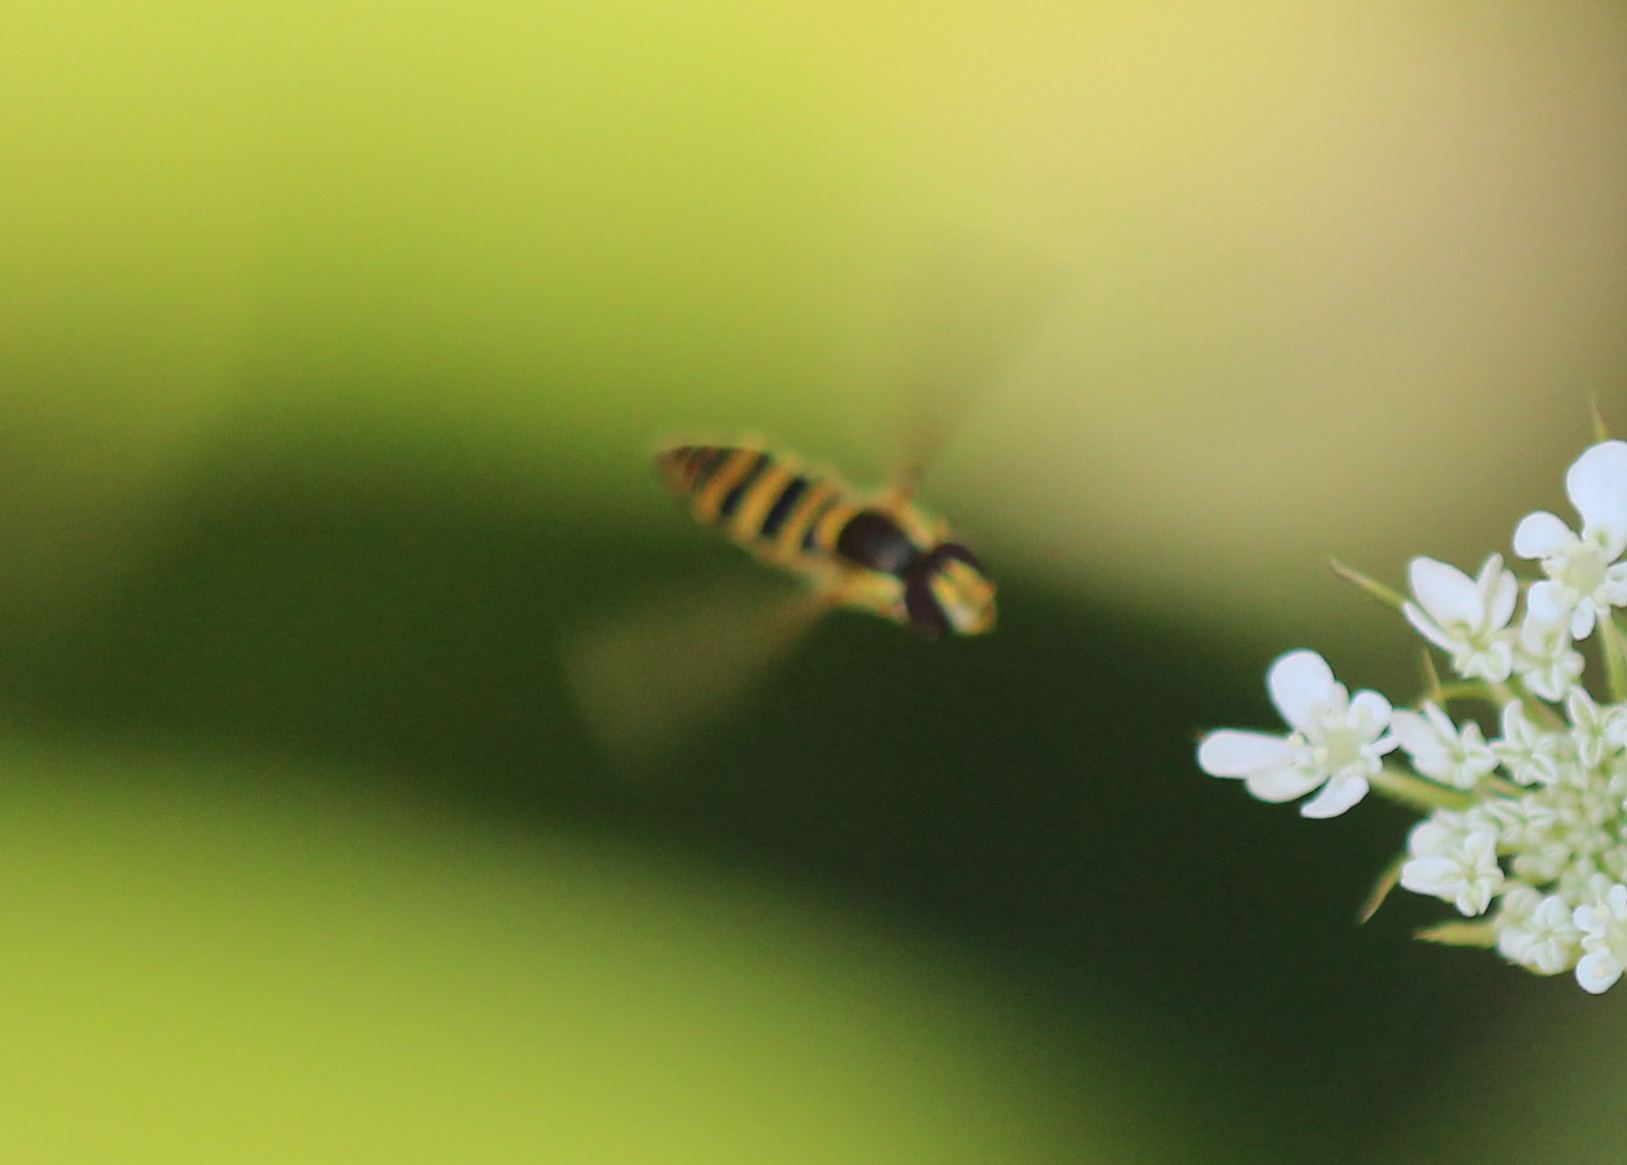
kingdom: Animalia
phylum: Arthropoda
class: Insecta
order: Diptera
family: Syrphidae
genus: Sphaerophoria
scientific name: Sphaerophoria
